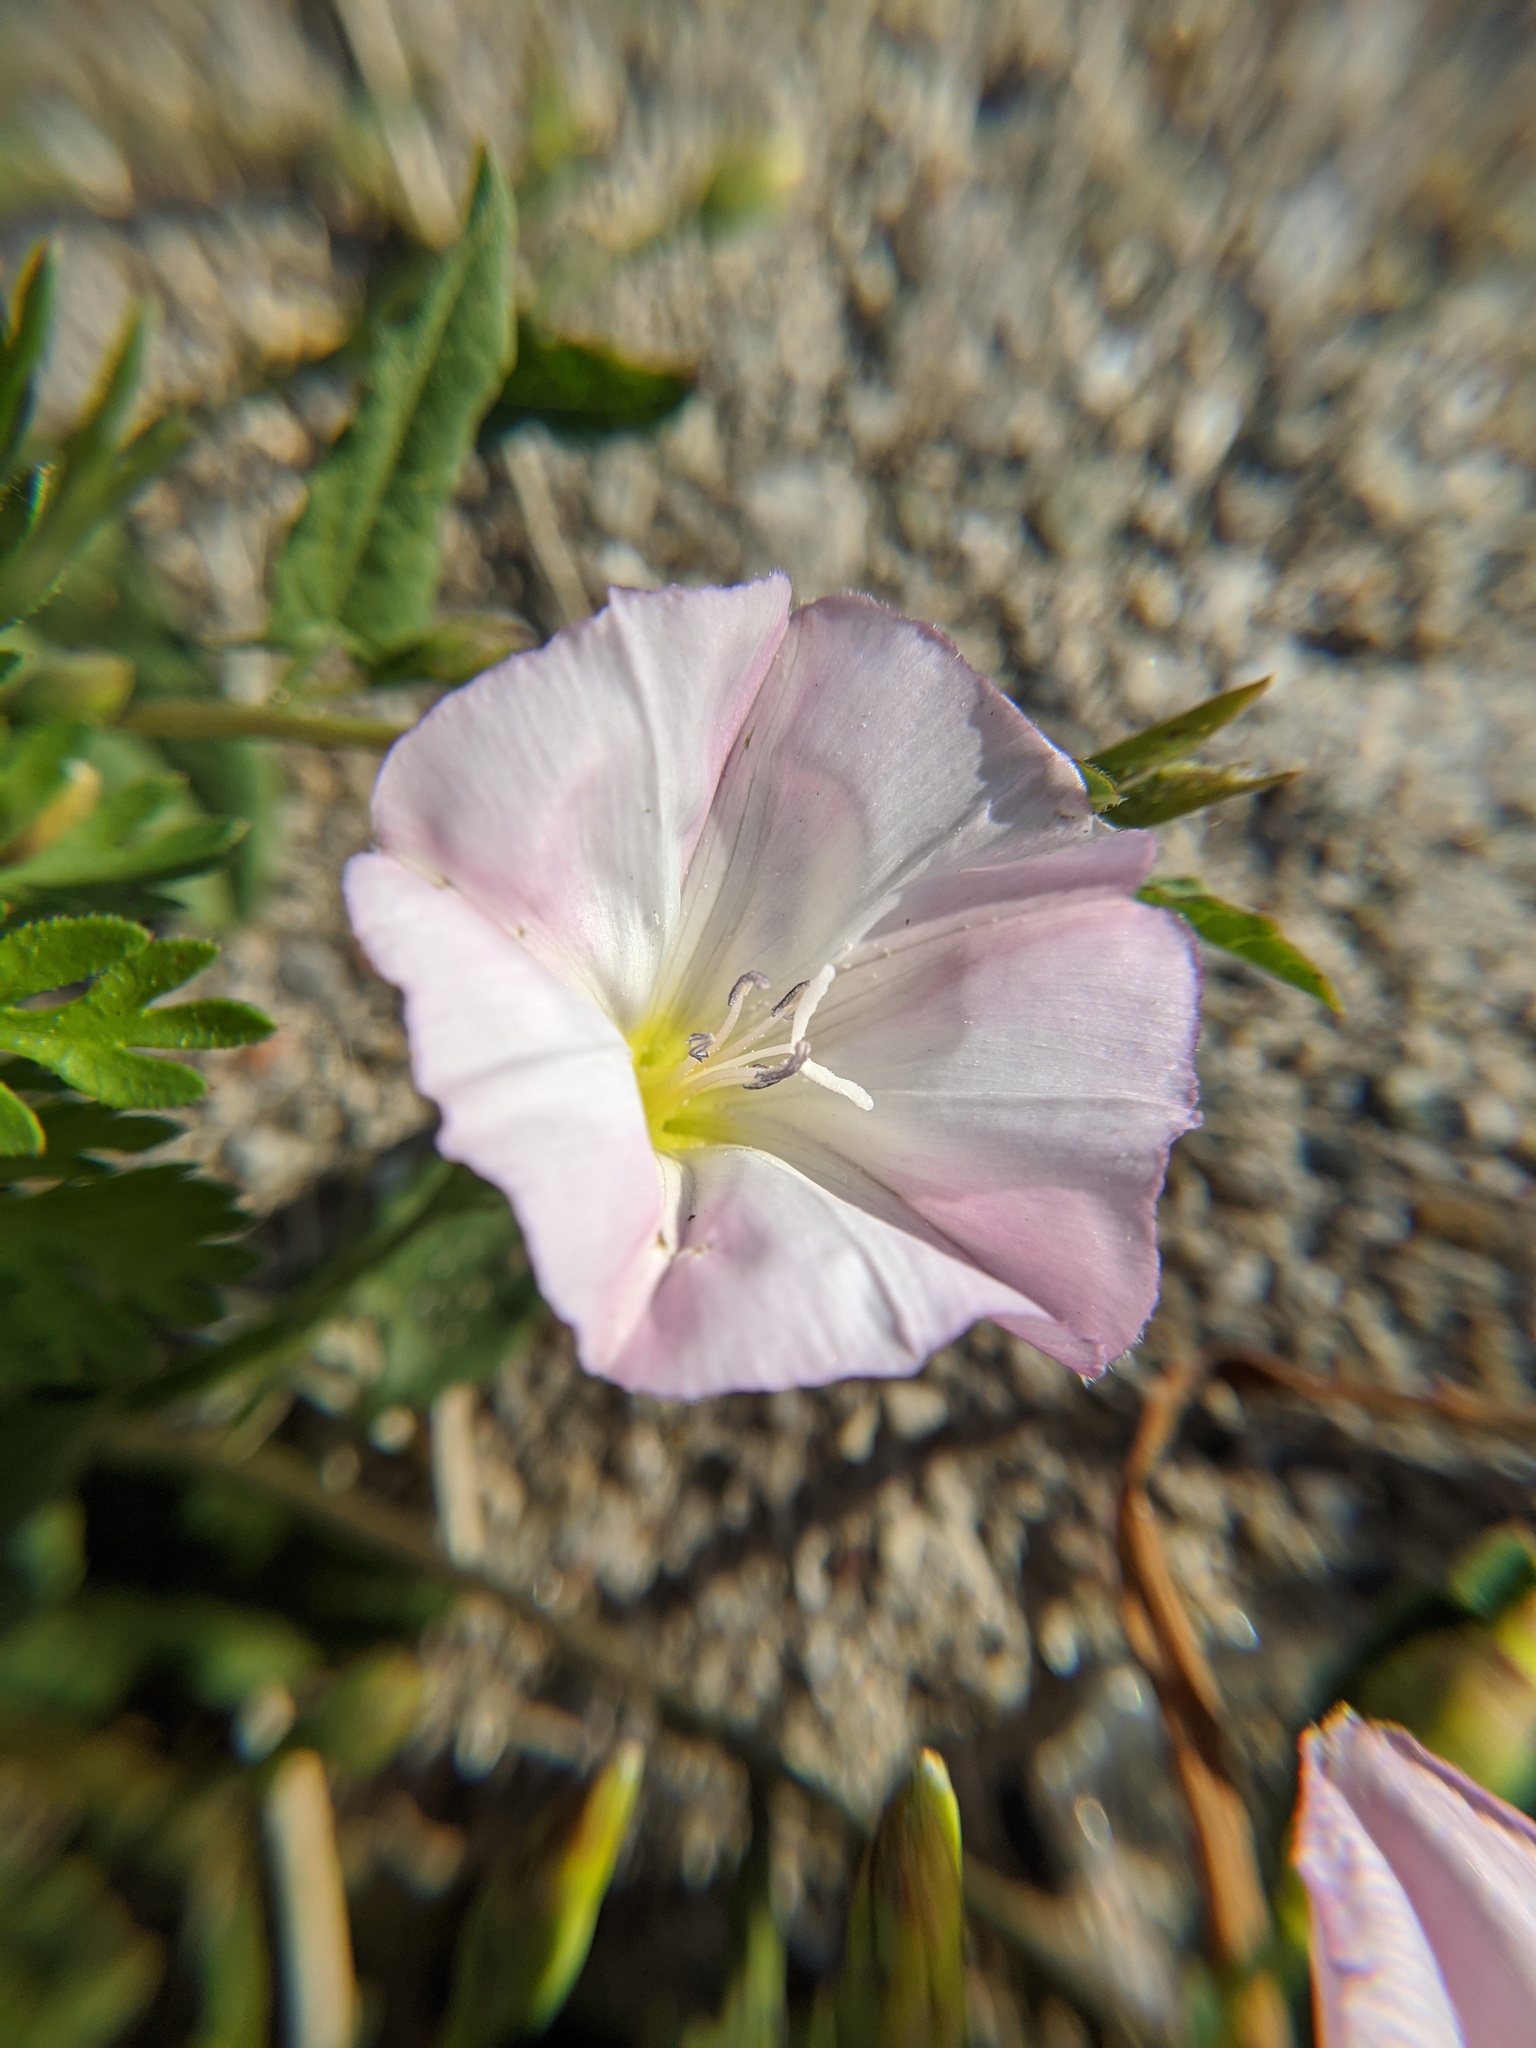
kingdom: Plantae
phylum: Tracheophyta
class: Magnoliopsida
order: Solanales
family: Convolvulaceae
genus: Convolvulus
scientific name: Convolvulus arvensis
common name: Field bindweed
